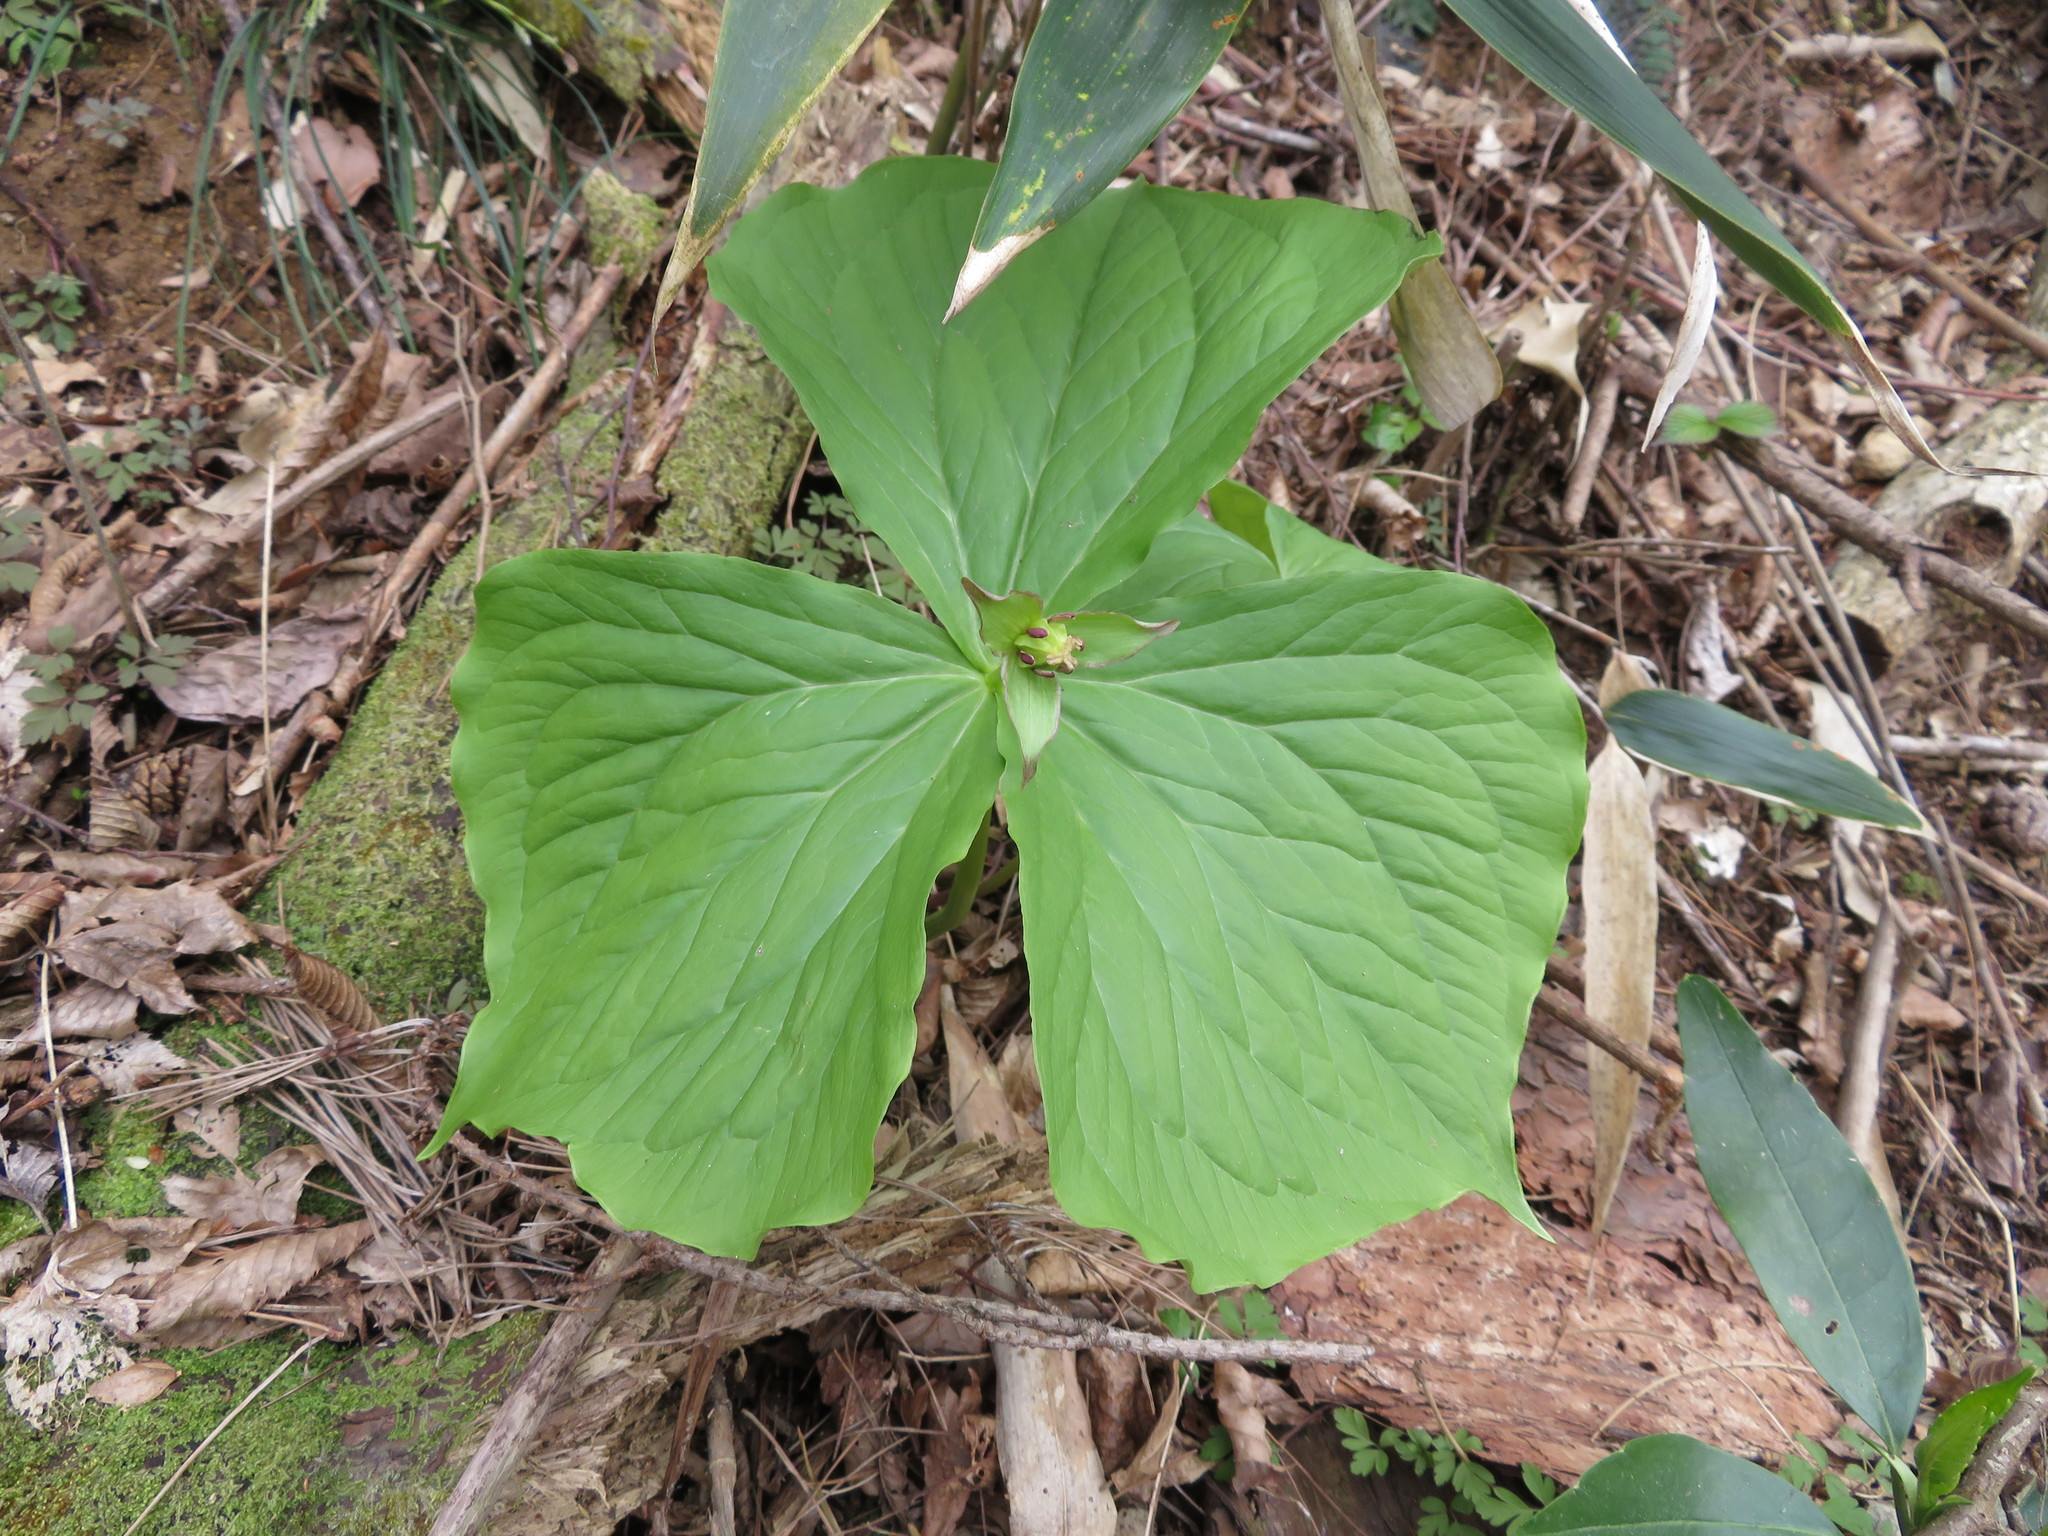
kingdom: Plantae
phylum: Tracheophyta
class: Liliopsida
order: Liliales
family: Melanthiaceae
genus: Trillium
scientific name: Trillium apetalon
